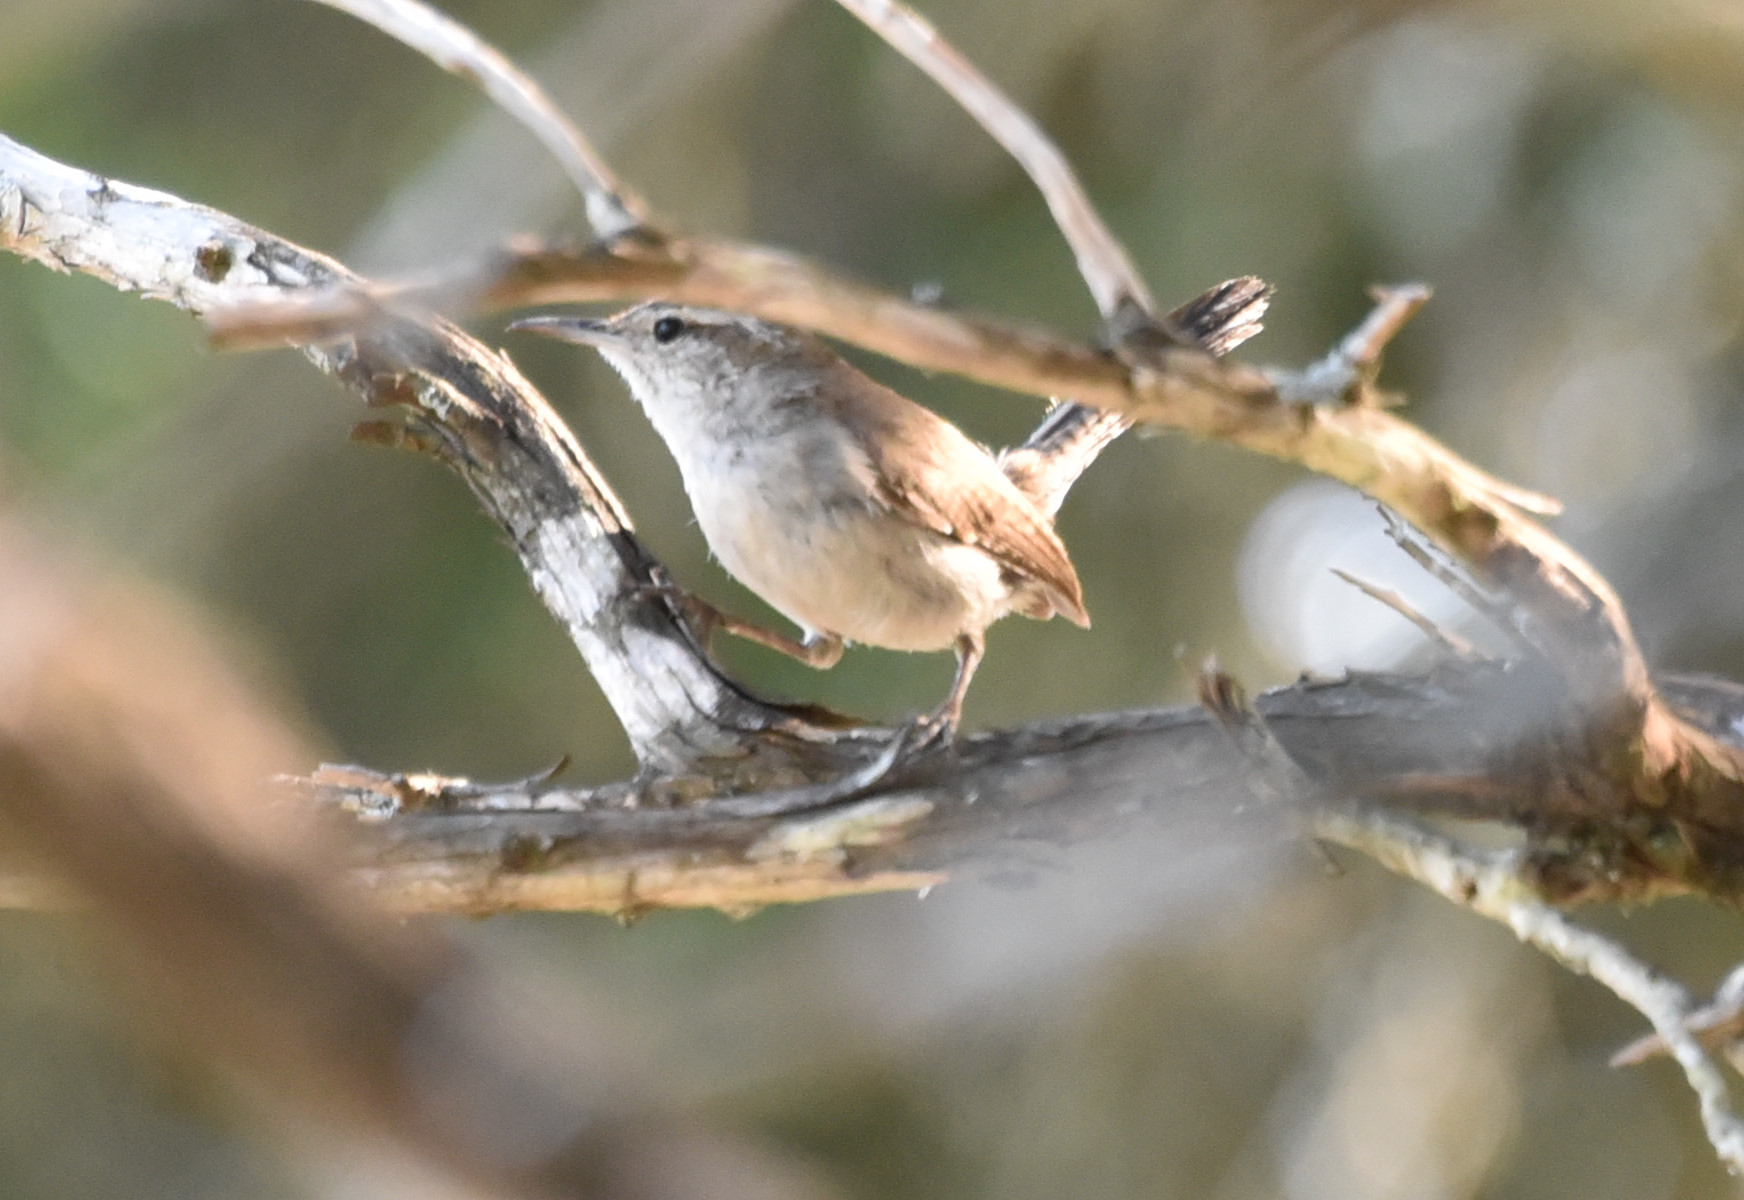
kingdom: Animalia
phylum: Chordata
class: Aves
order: Passeriformes
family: Troglodytidae
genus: Thryomanes
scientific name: Thryomanes bewickii
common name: Bewick's wren
